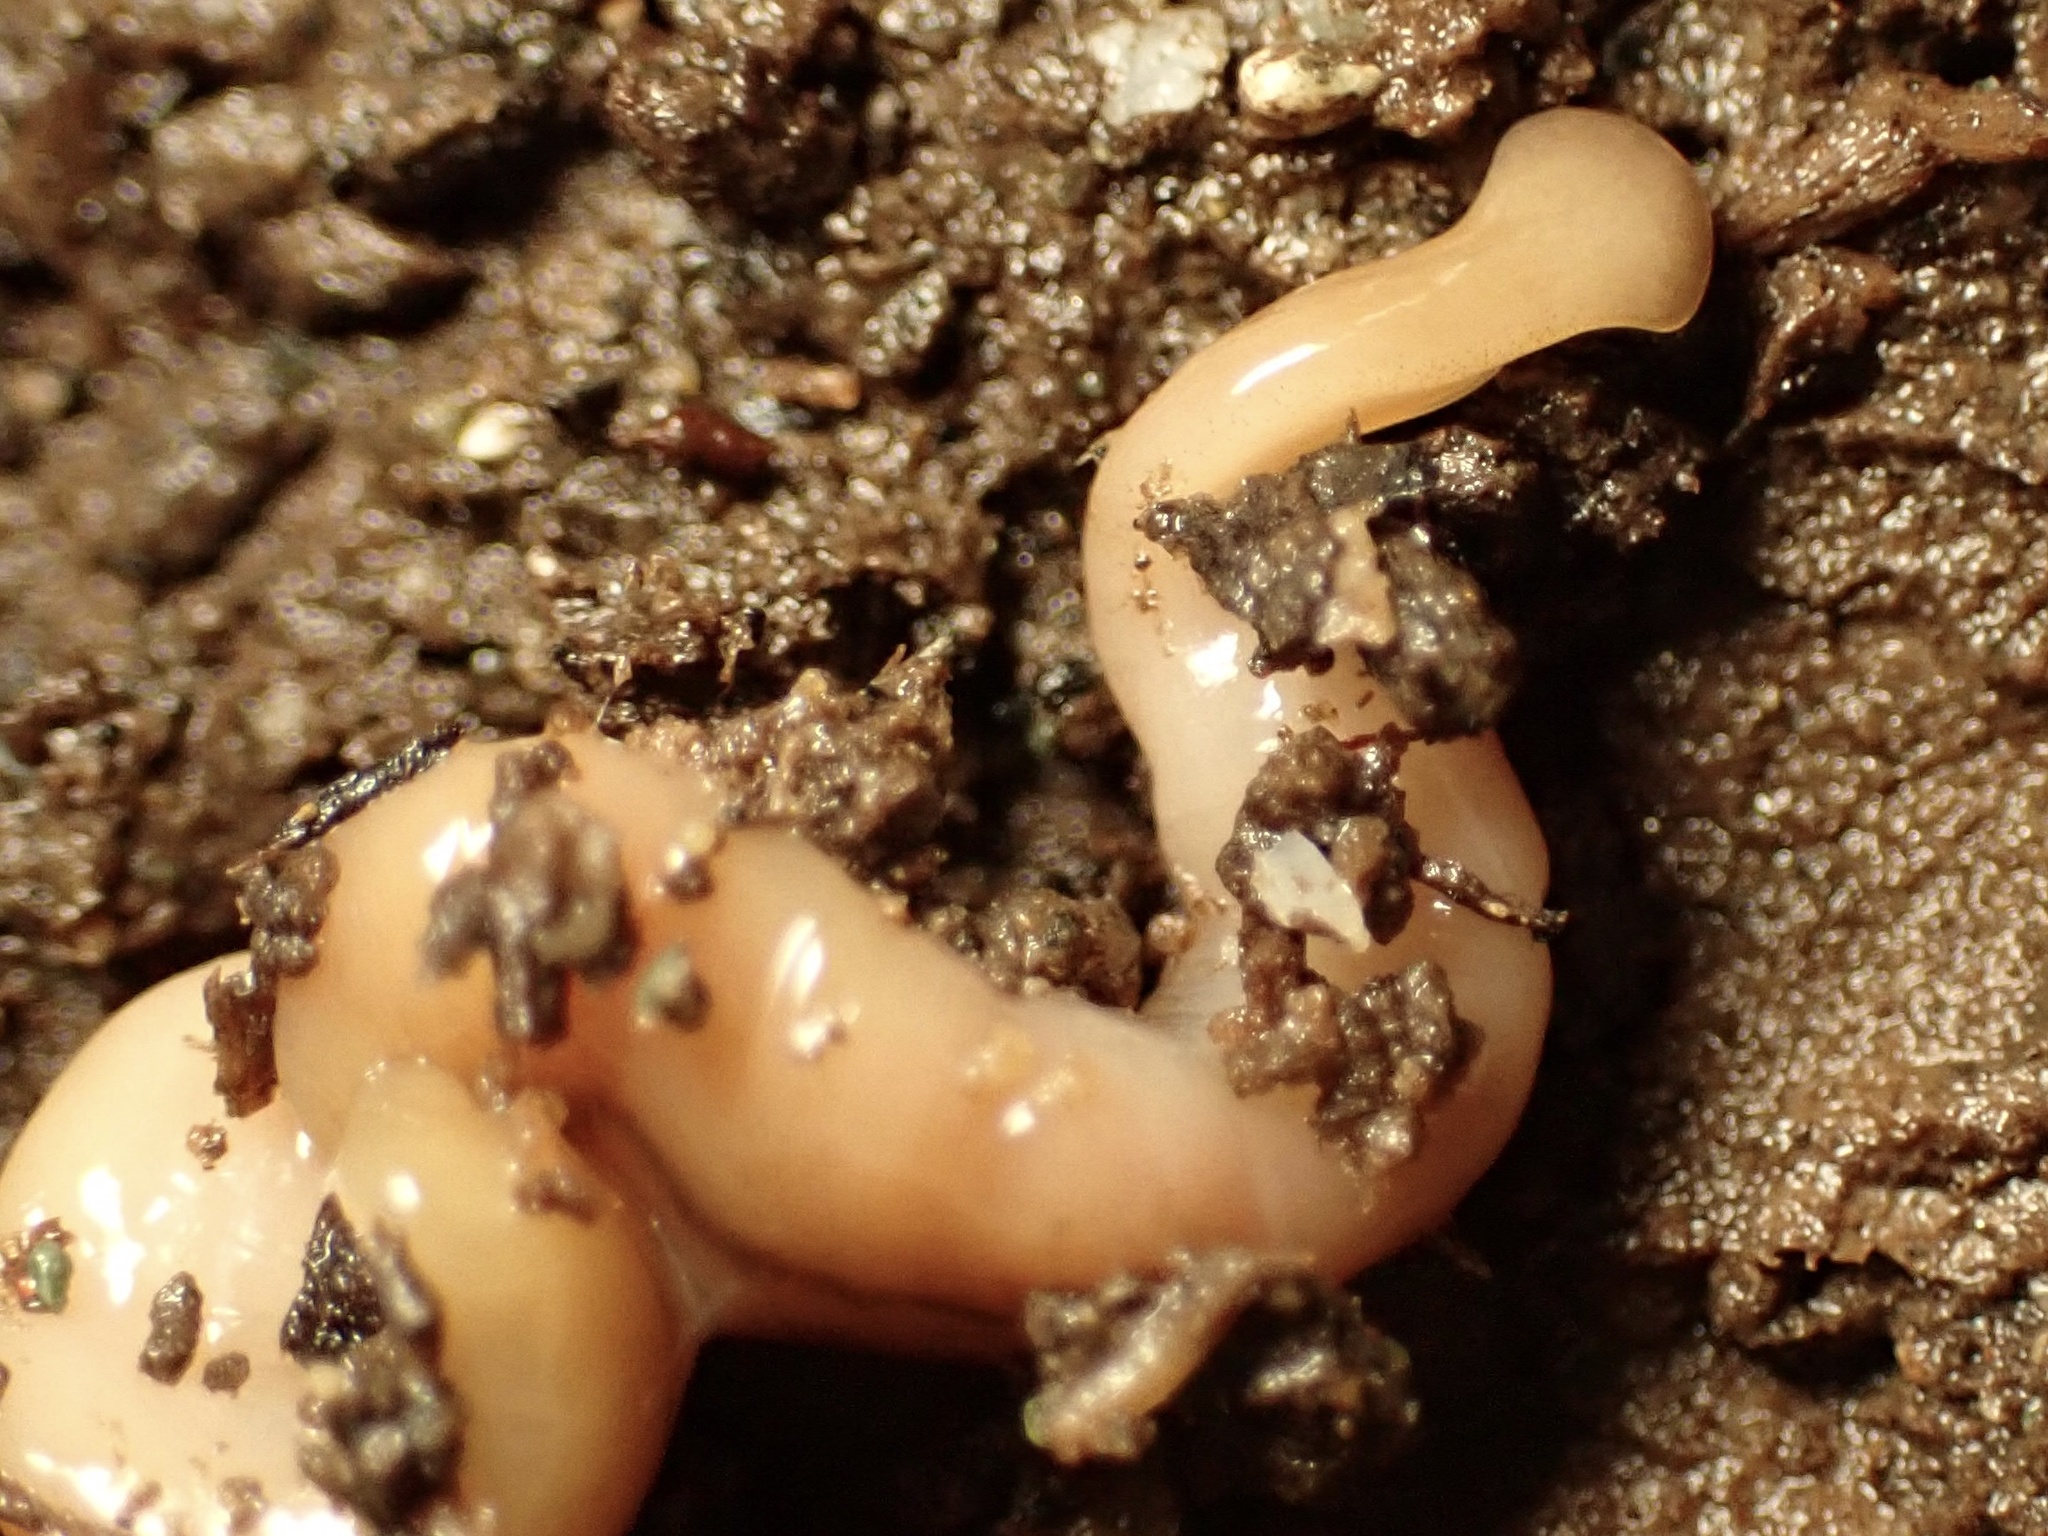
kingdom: Animalia
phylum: Platyhelminthes
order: Tricladida
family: Geoplanidae
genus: Bipalium
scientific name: Bipalium adventitium
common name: Land planarian
